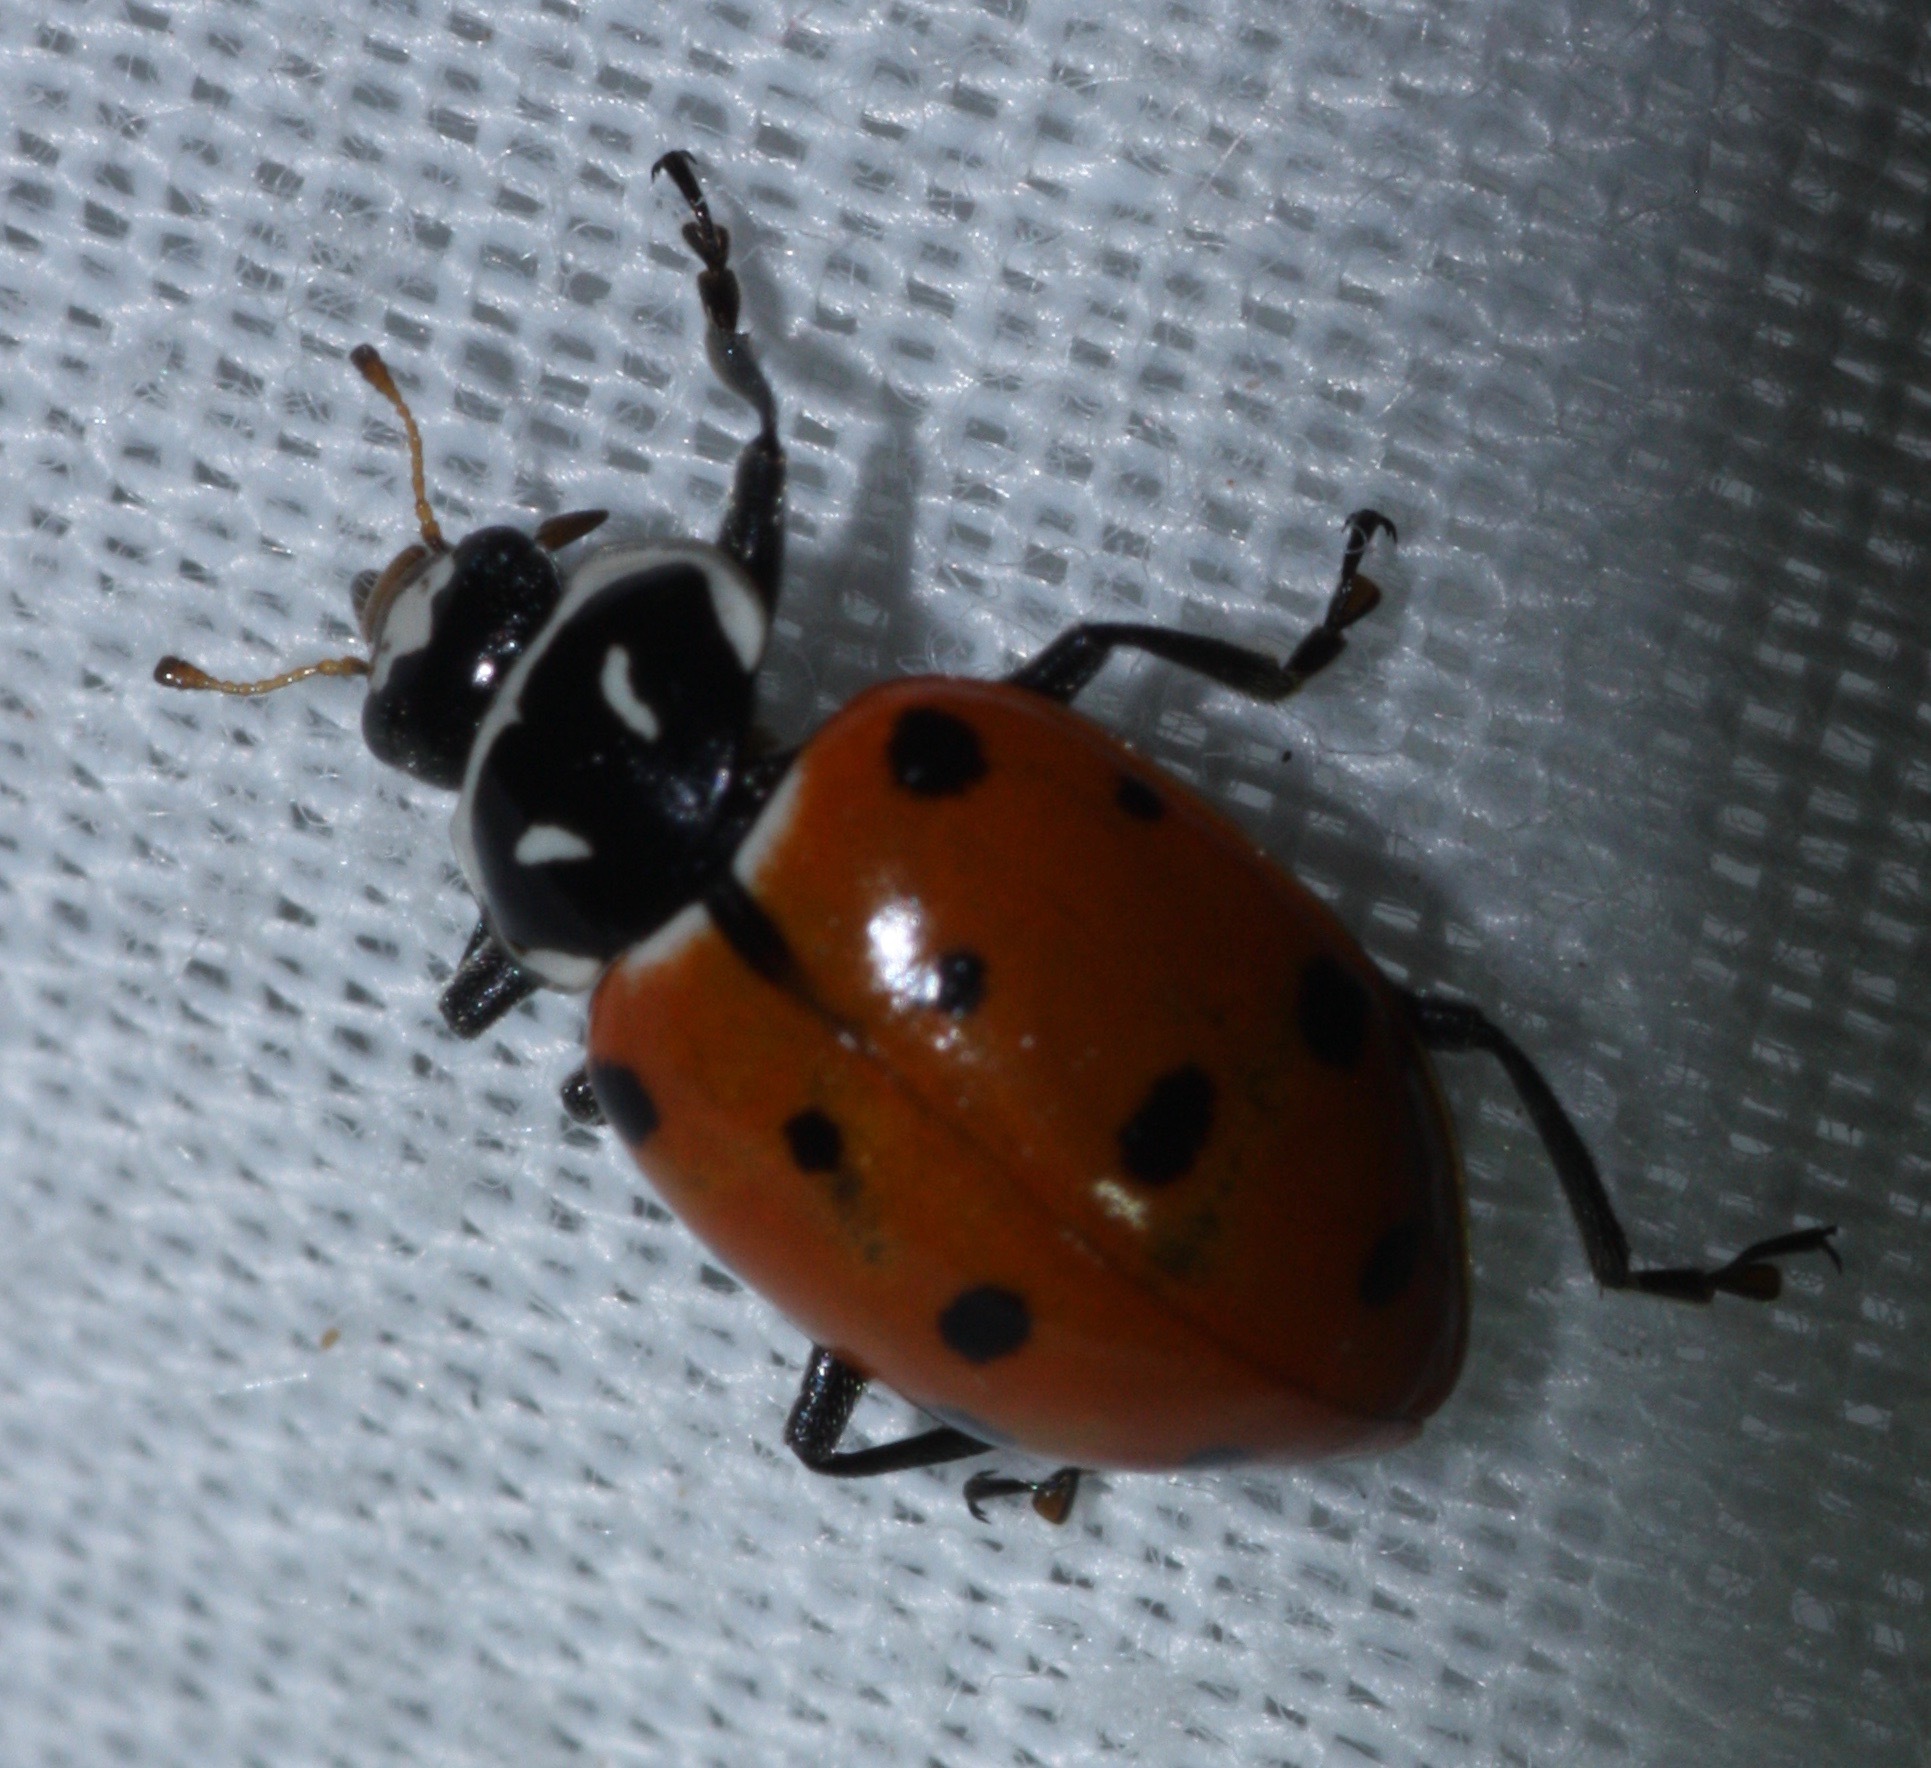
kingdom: Animalia
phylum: Arthropoda
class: Insecta
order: Coleoptera
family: Coccinellidae
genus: Hippodamia
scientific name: Hippodamia convergens
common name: Convergent lady beetle
